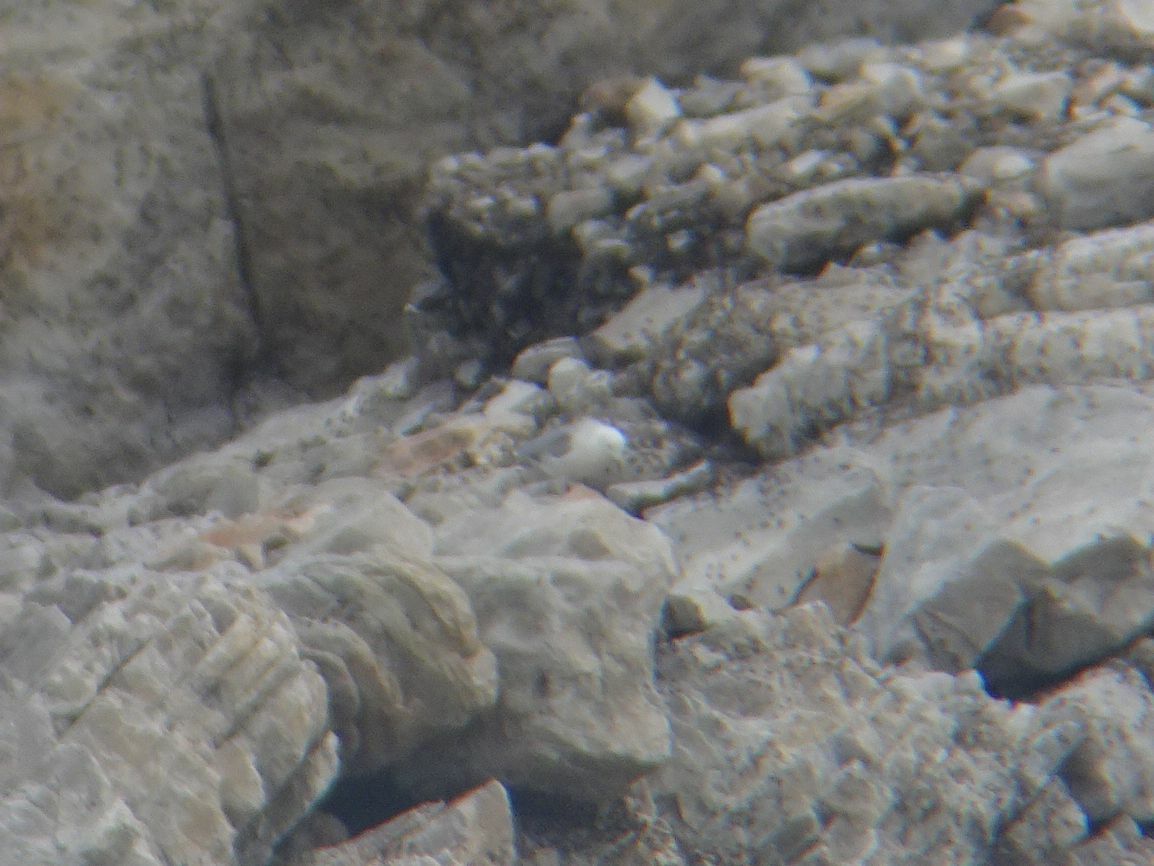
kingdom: Animalia
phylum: Chordata
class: Aves
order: Charadriiformes
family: Laridae
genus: Chroicocephalus
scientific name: Chroicocephalus cirrocephalus
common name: Grey-headed gull
